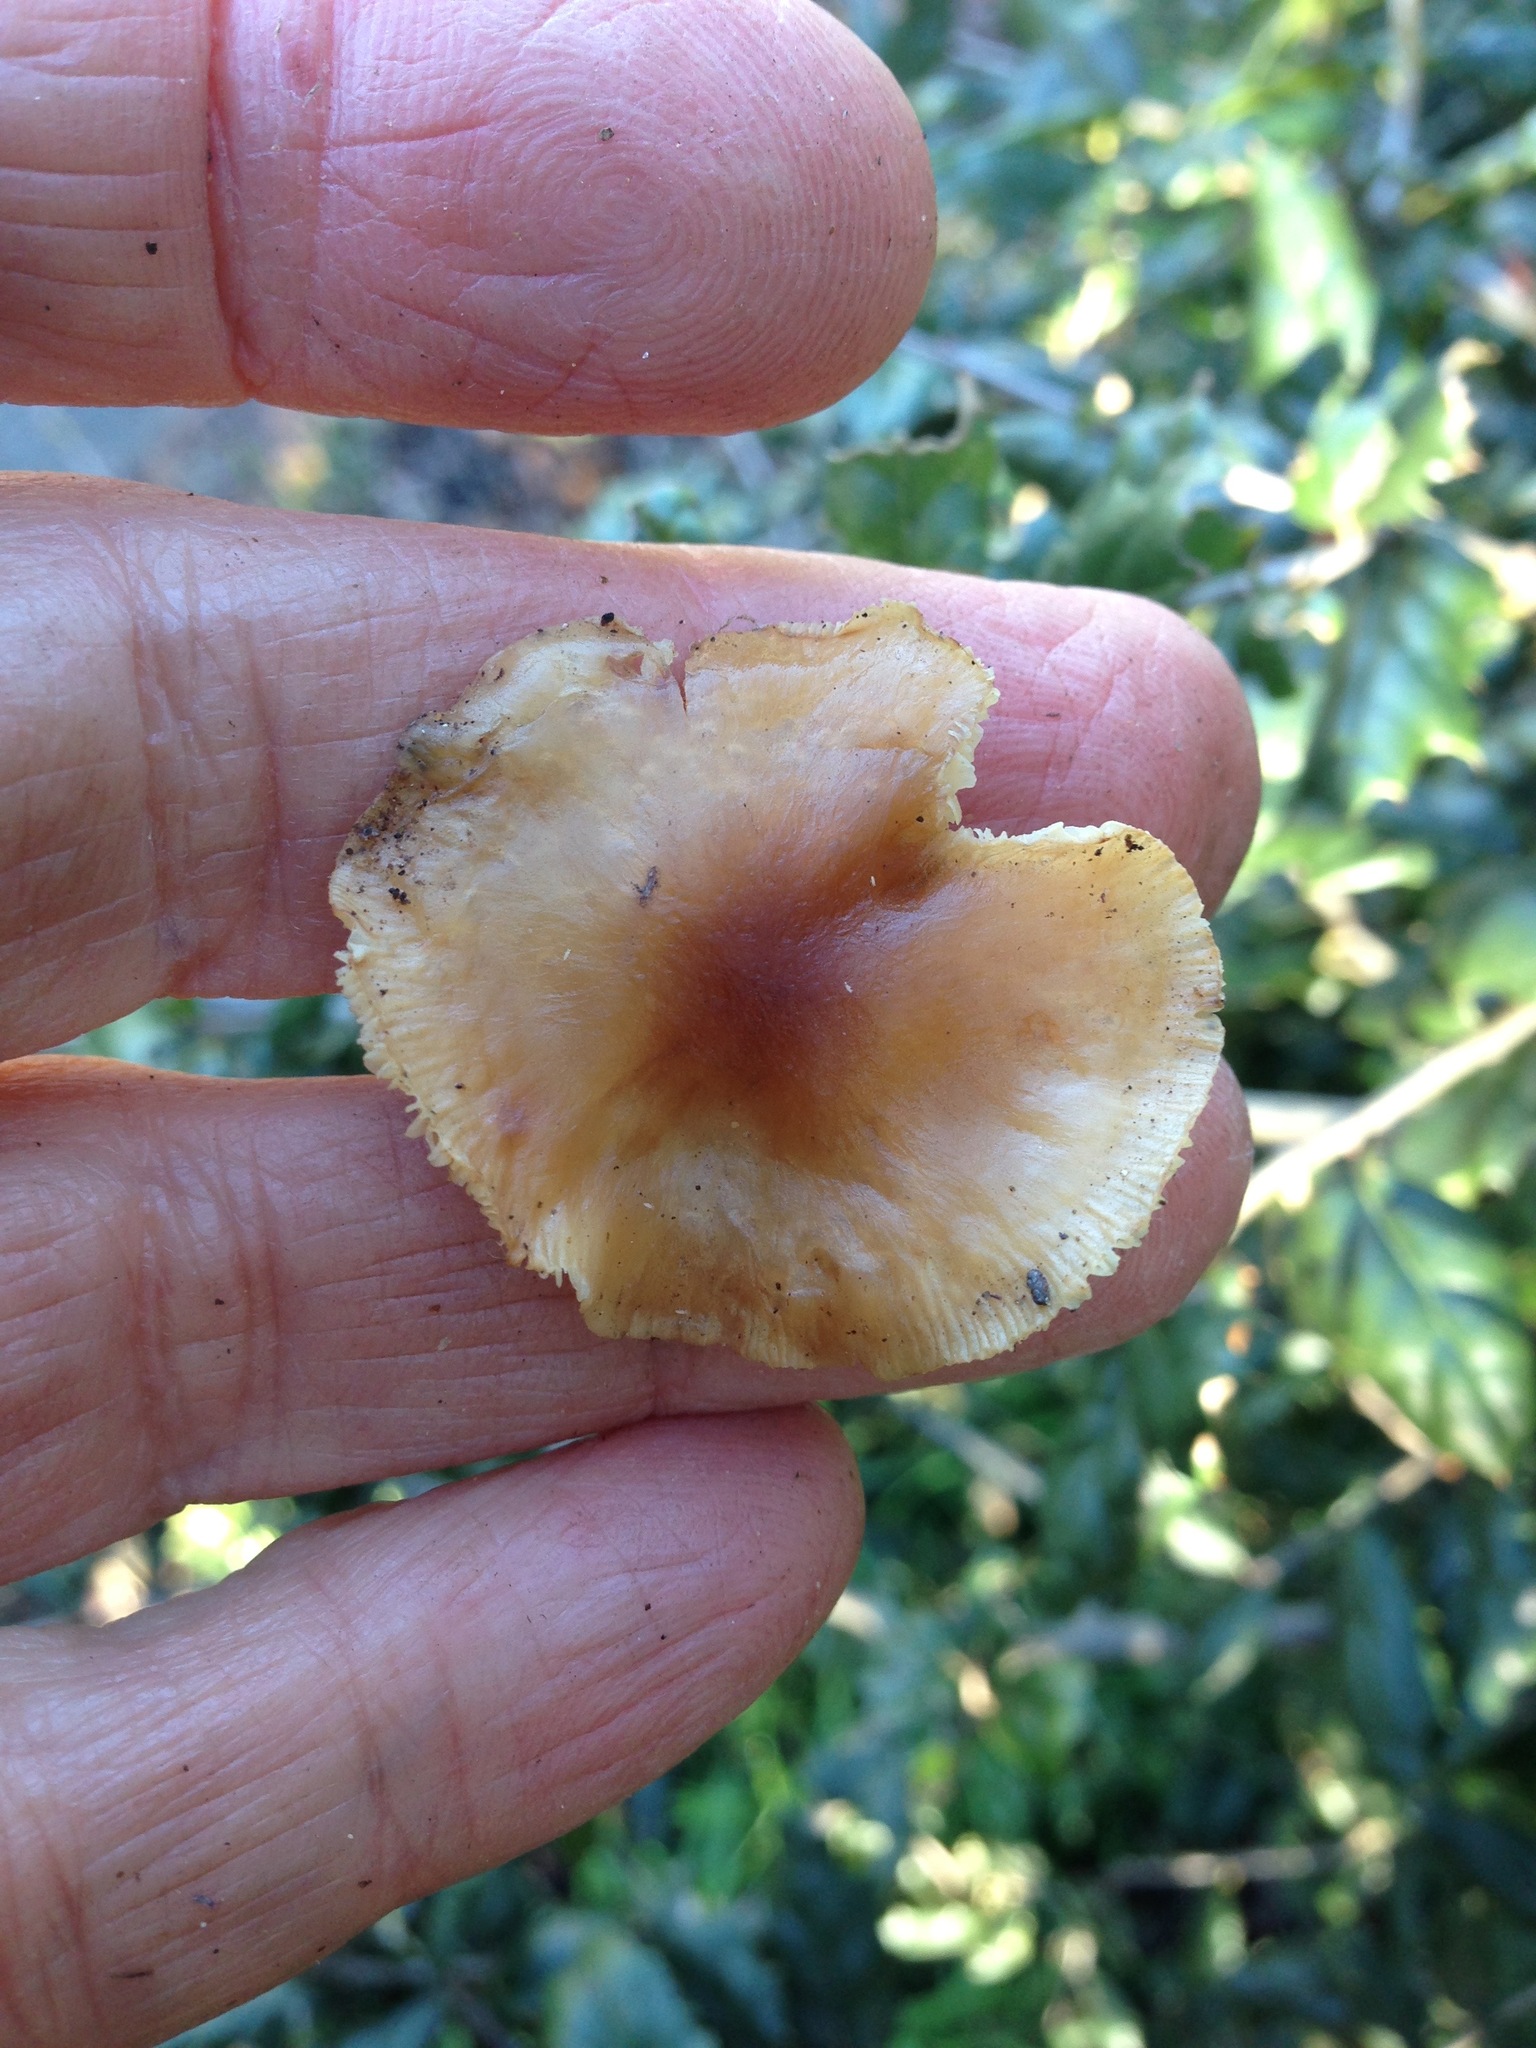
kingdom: Fungi
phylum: Basidiomycota
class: Agaricomycetes
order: Agaricales
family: Omphalotaceae
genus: Rhodocollybia
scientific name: Rhodocollybia butyracea
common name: Butter cap
